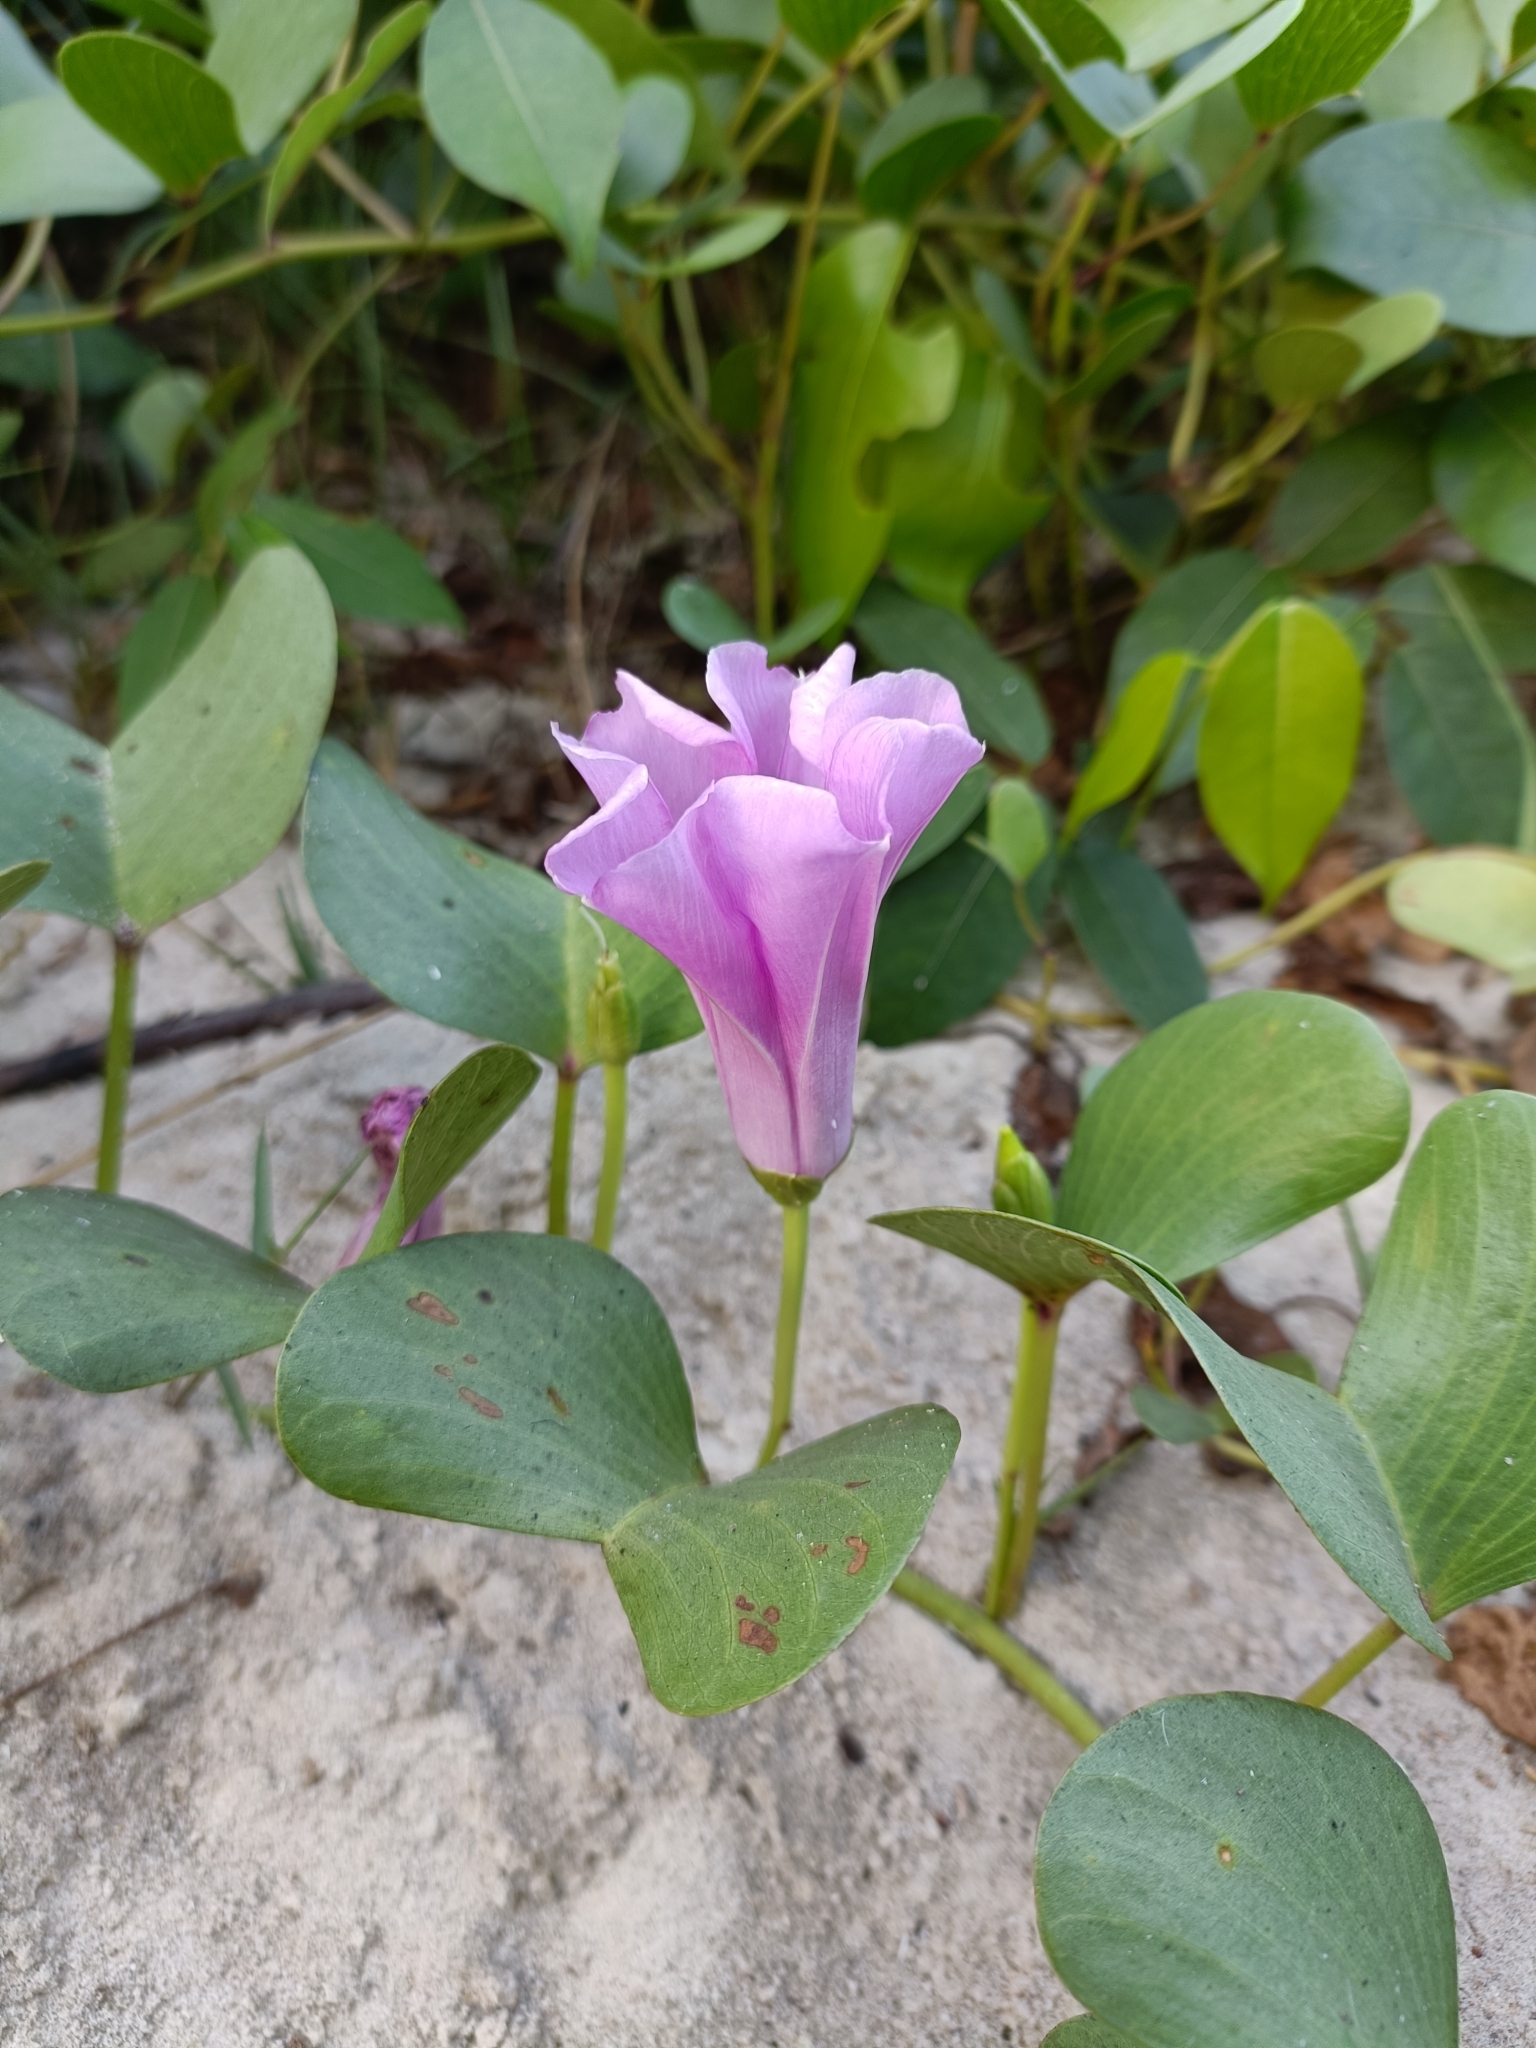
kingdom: Plantae
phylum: Tracheophyta
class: Magnoliopsida
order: Solanales
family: Convolvulaceae
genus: Ipomoea
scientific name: Ipomoea pes-caprae
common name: Beach morning glory
